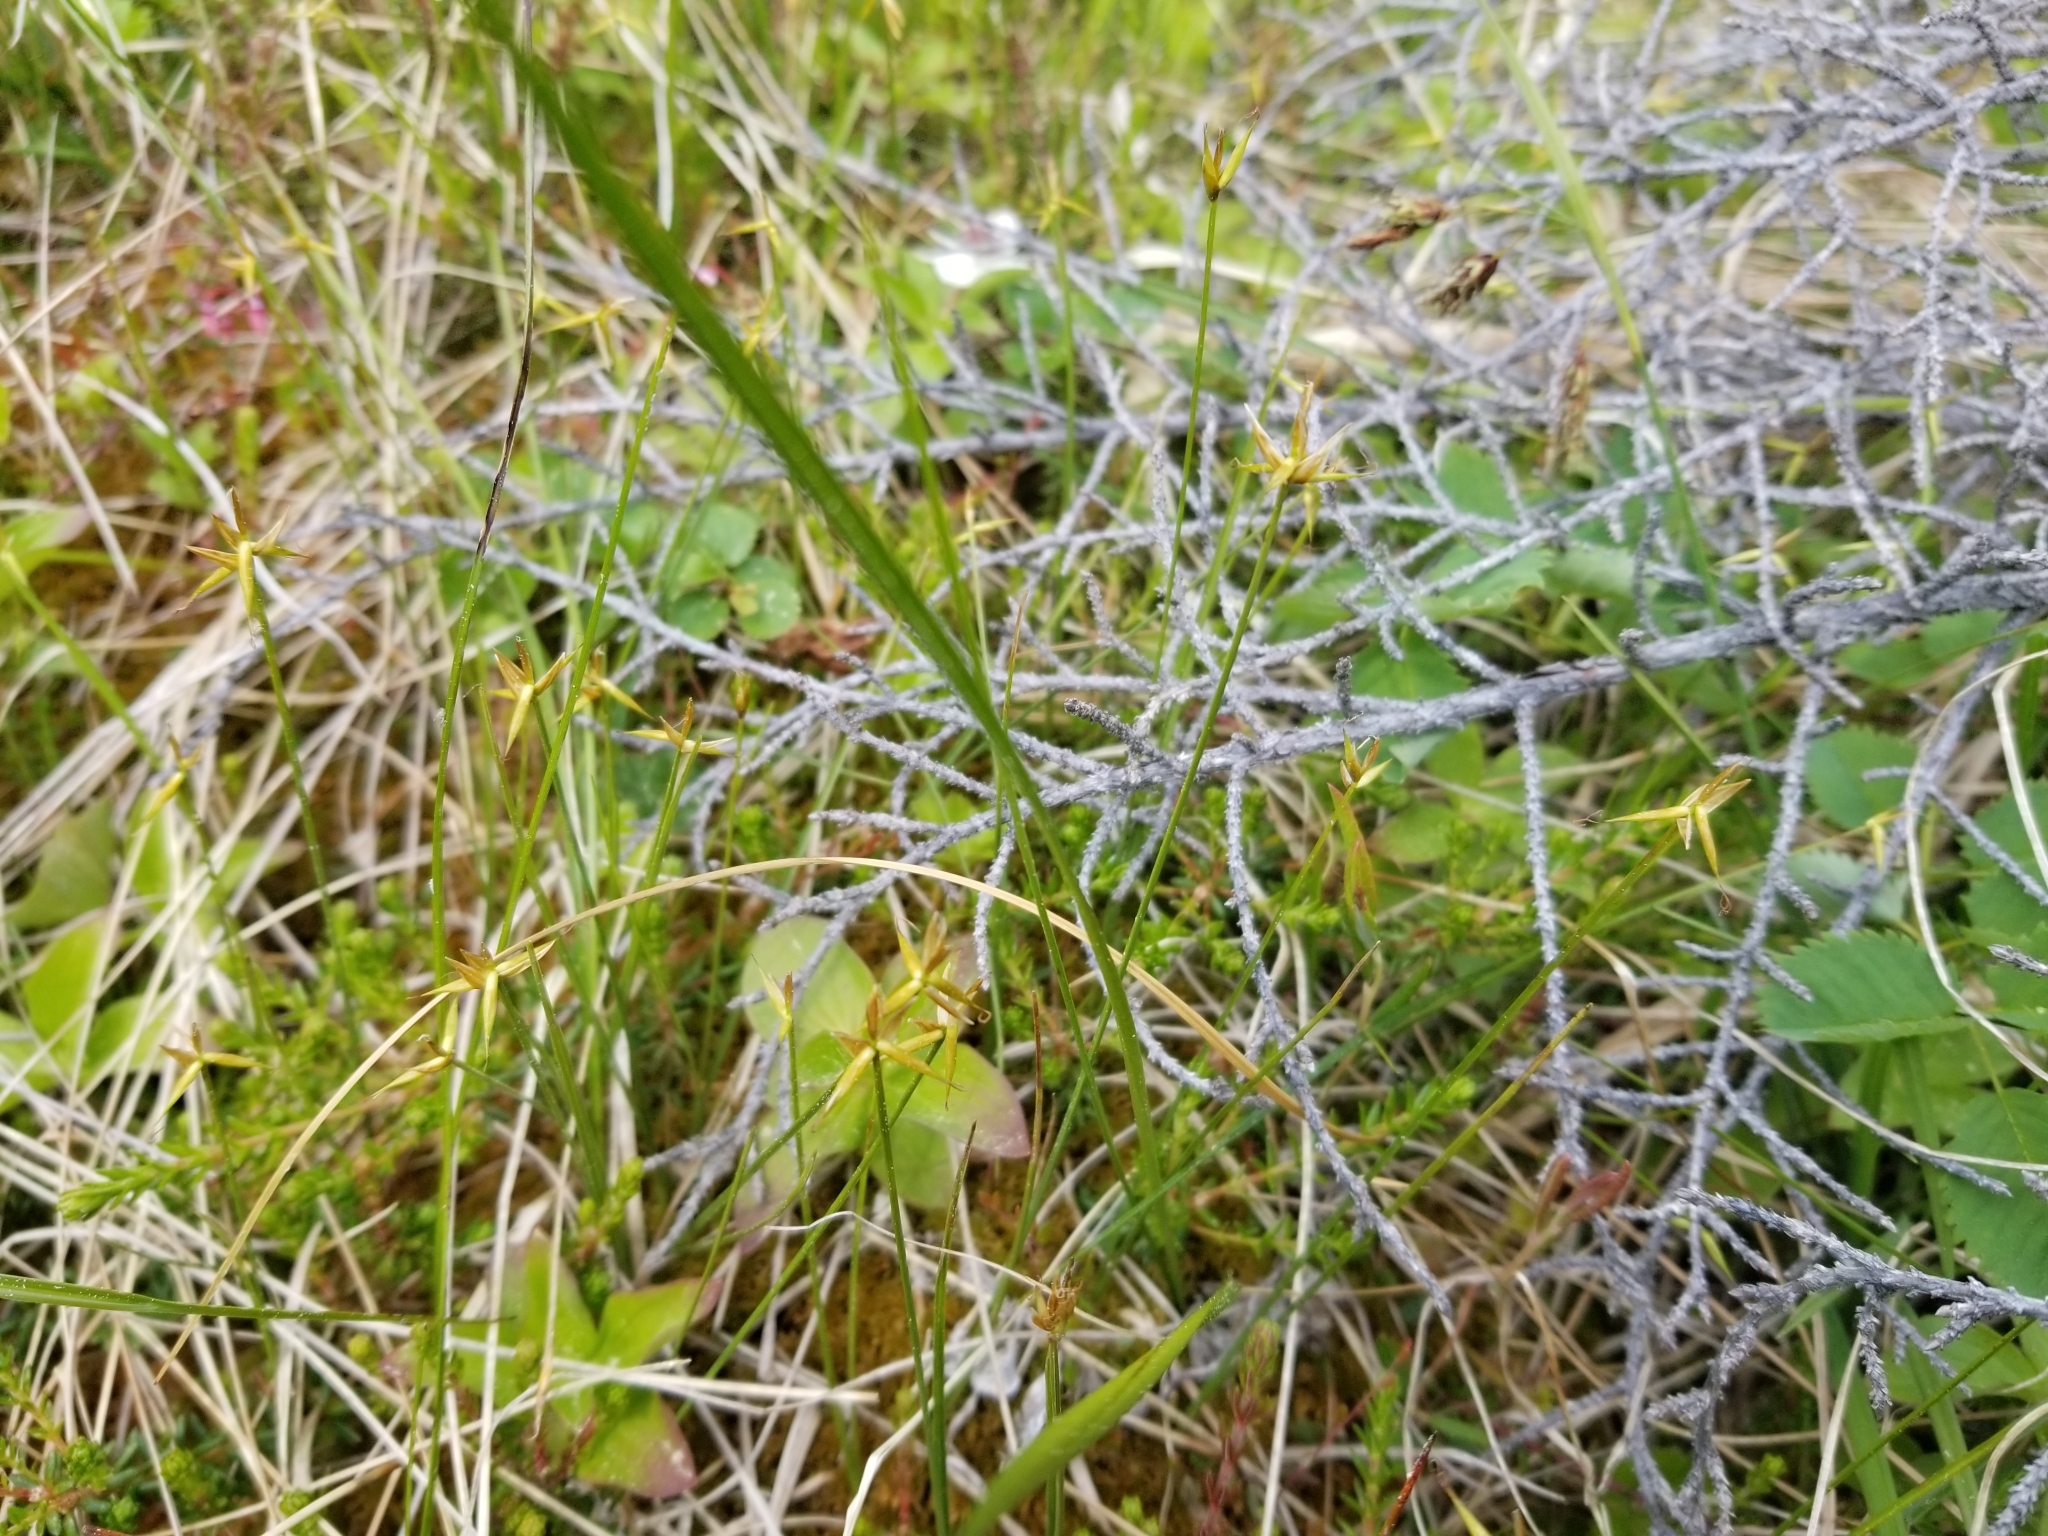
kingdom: Plantae
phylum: Tracheophyta
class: Liliopsida
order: Poales
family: Cyperaceae
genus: Carex
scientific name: Carex pauciflora
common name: Few-flowered sedge
